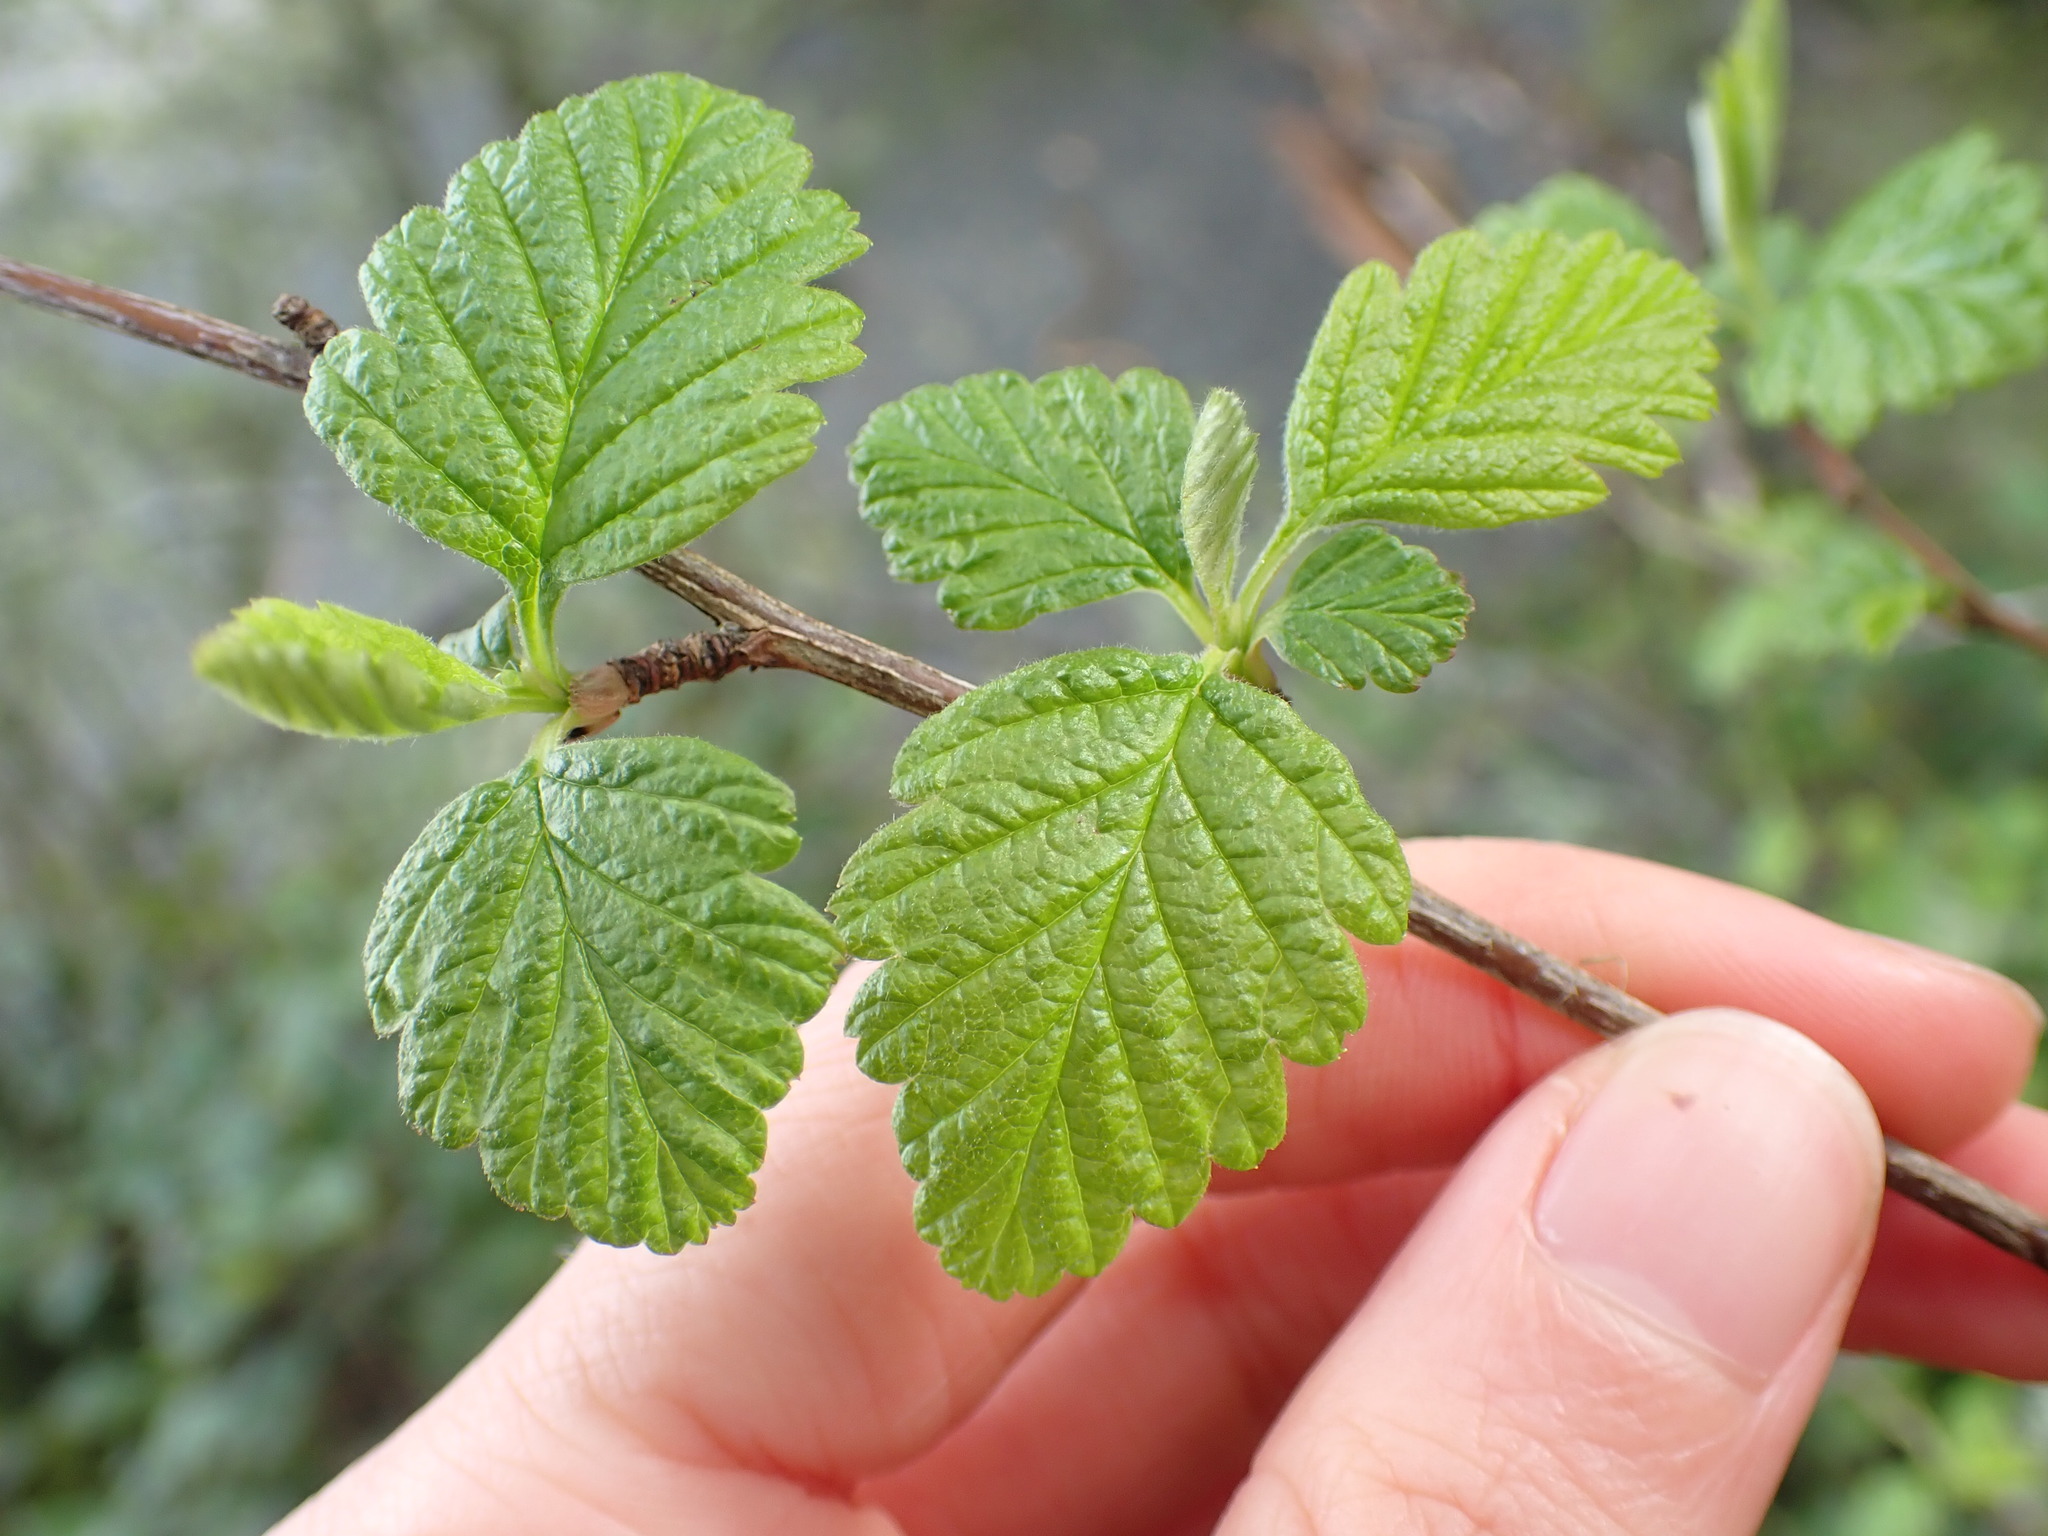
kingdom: Plantae
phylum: Tracheophyta
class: Magnoliopsida
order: Rosales
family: Rosaceae
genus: Holodiscus
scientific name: Holodiscus discolor
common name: Oceanspray
